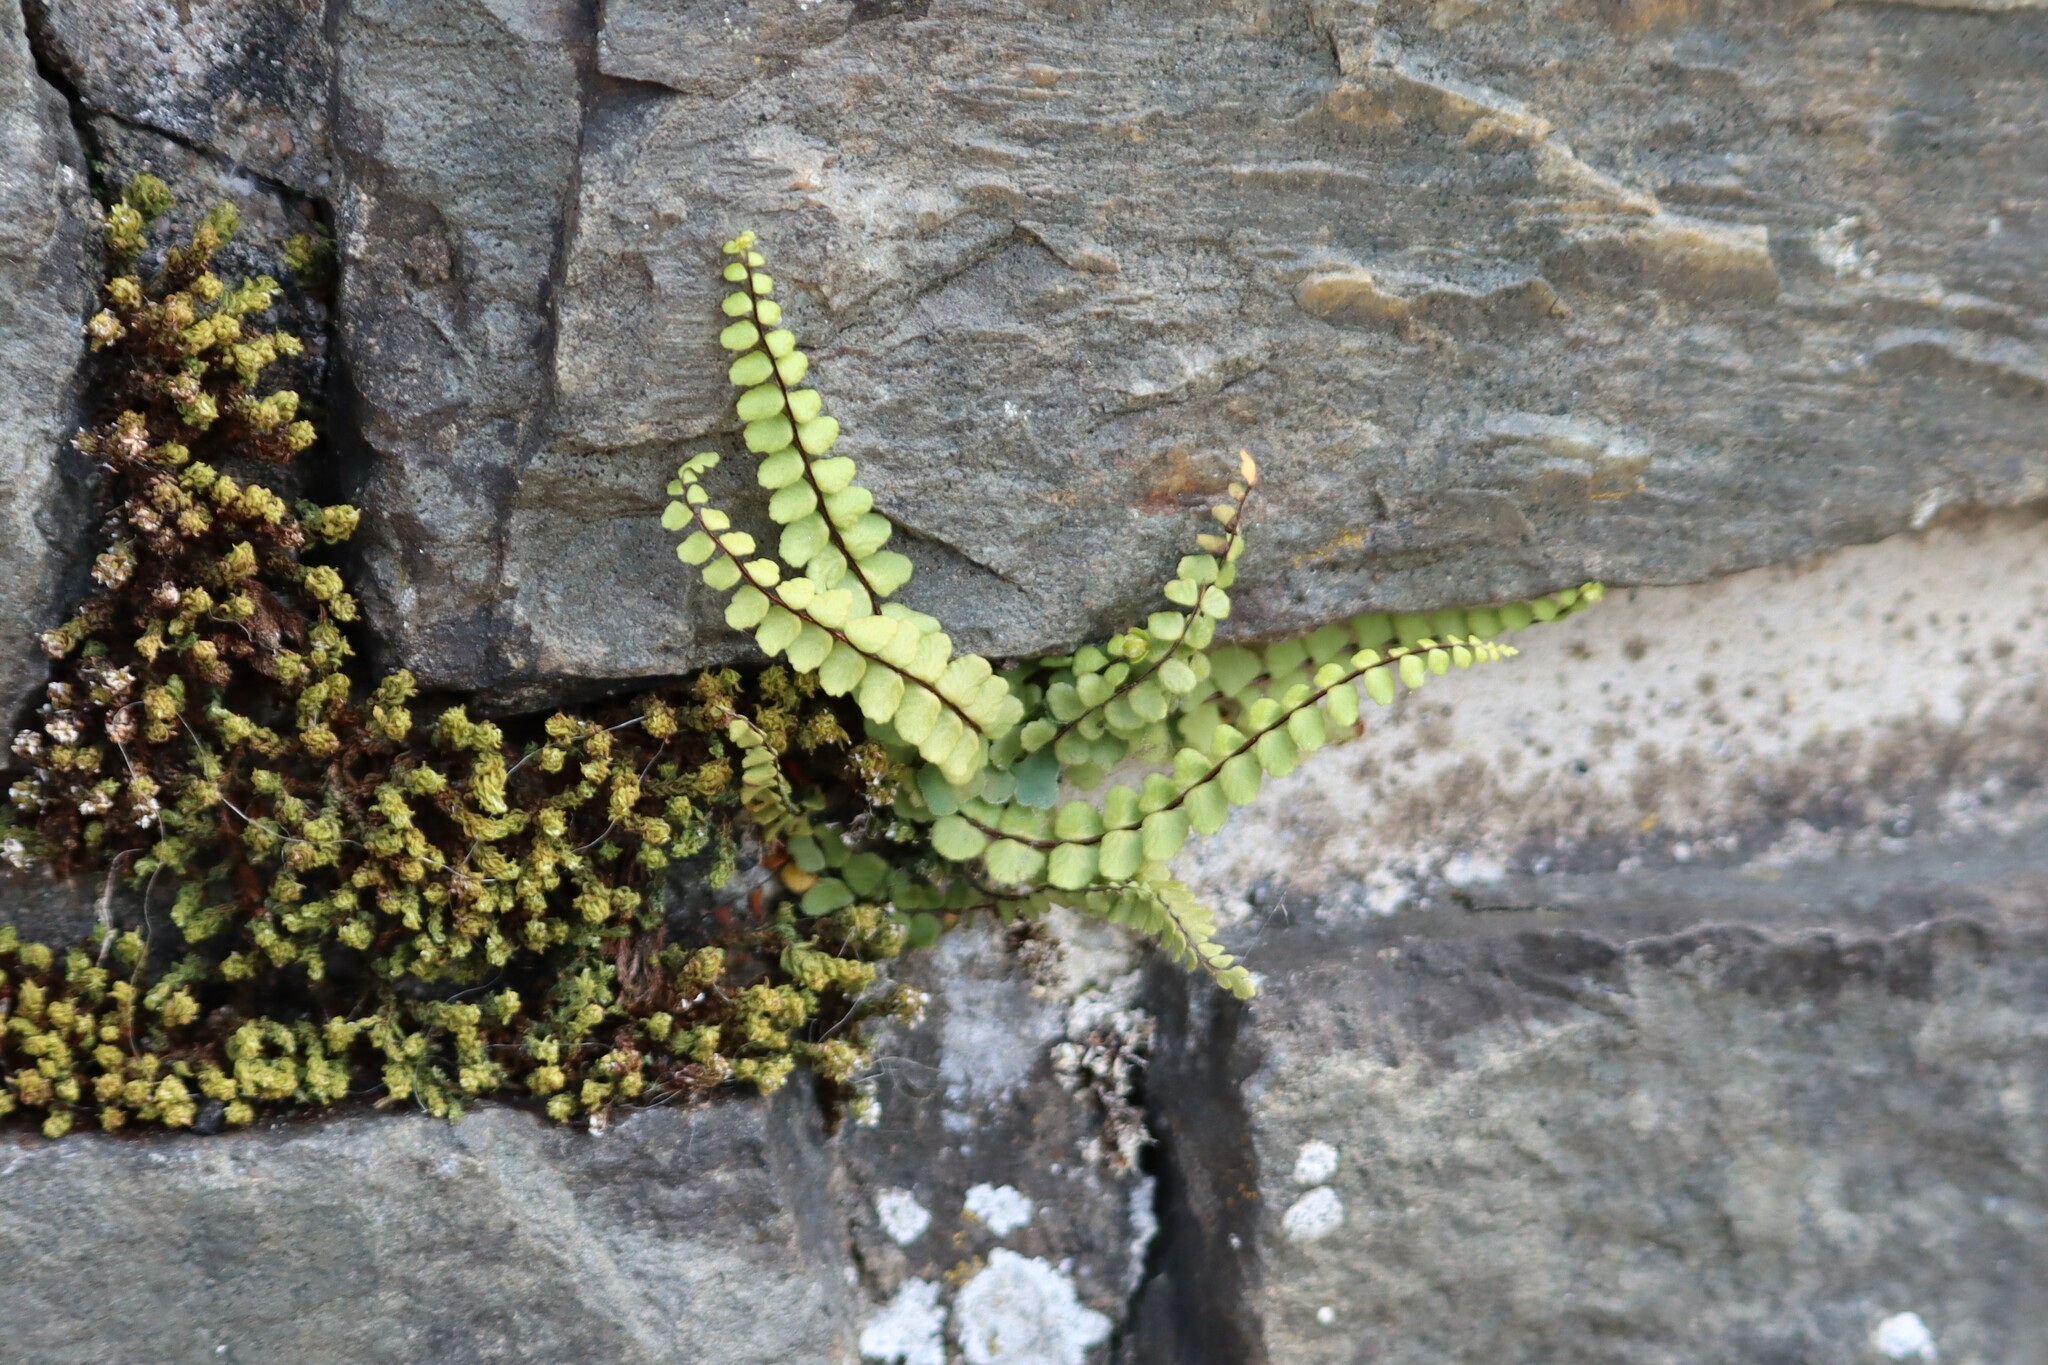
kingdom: Plantae
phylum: Tracheophyta
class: Polypodiopsida
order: Polypodiales
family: Aspleniaceae
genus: Asplenium
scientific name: Asplenium trichomanes
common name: Maidenhair spleenwort
